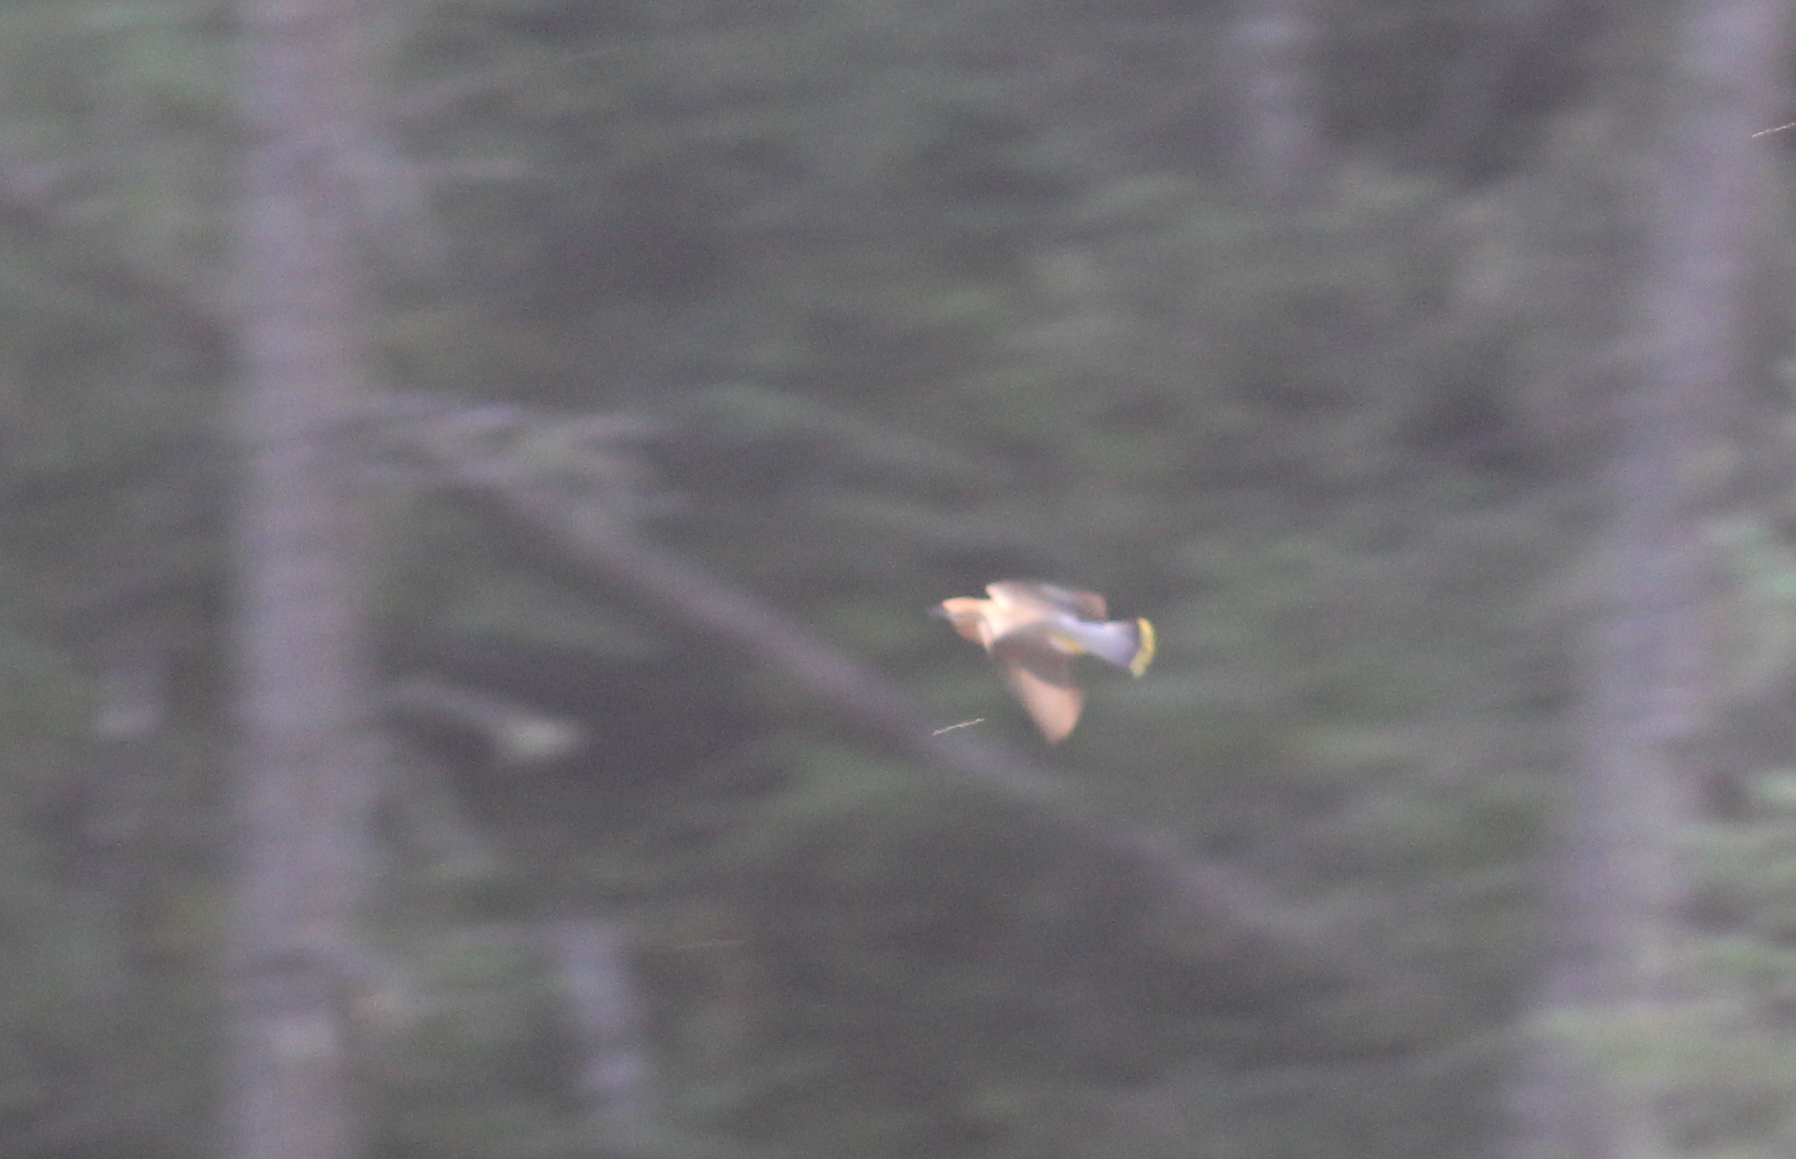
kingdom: Animalia
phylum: Chordata
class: Aves
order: Passeriformes
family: Bombycillidae
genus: Bombycilla
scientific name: Bombycilla cedrorum
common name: Cedar waxwing
